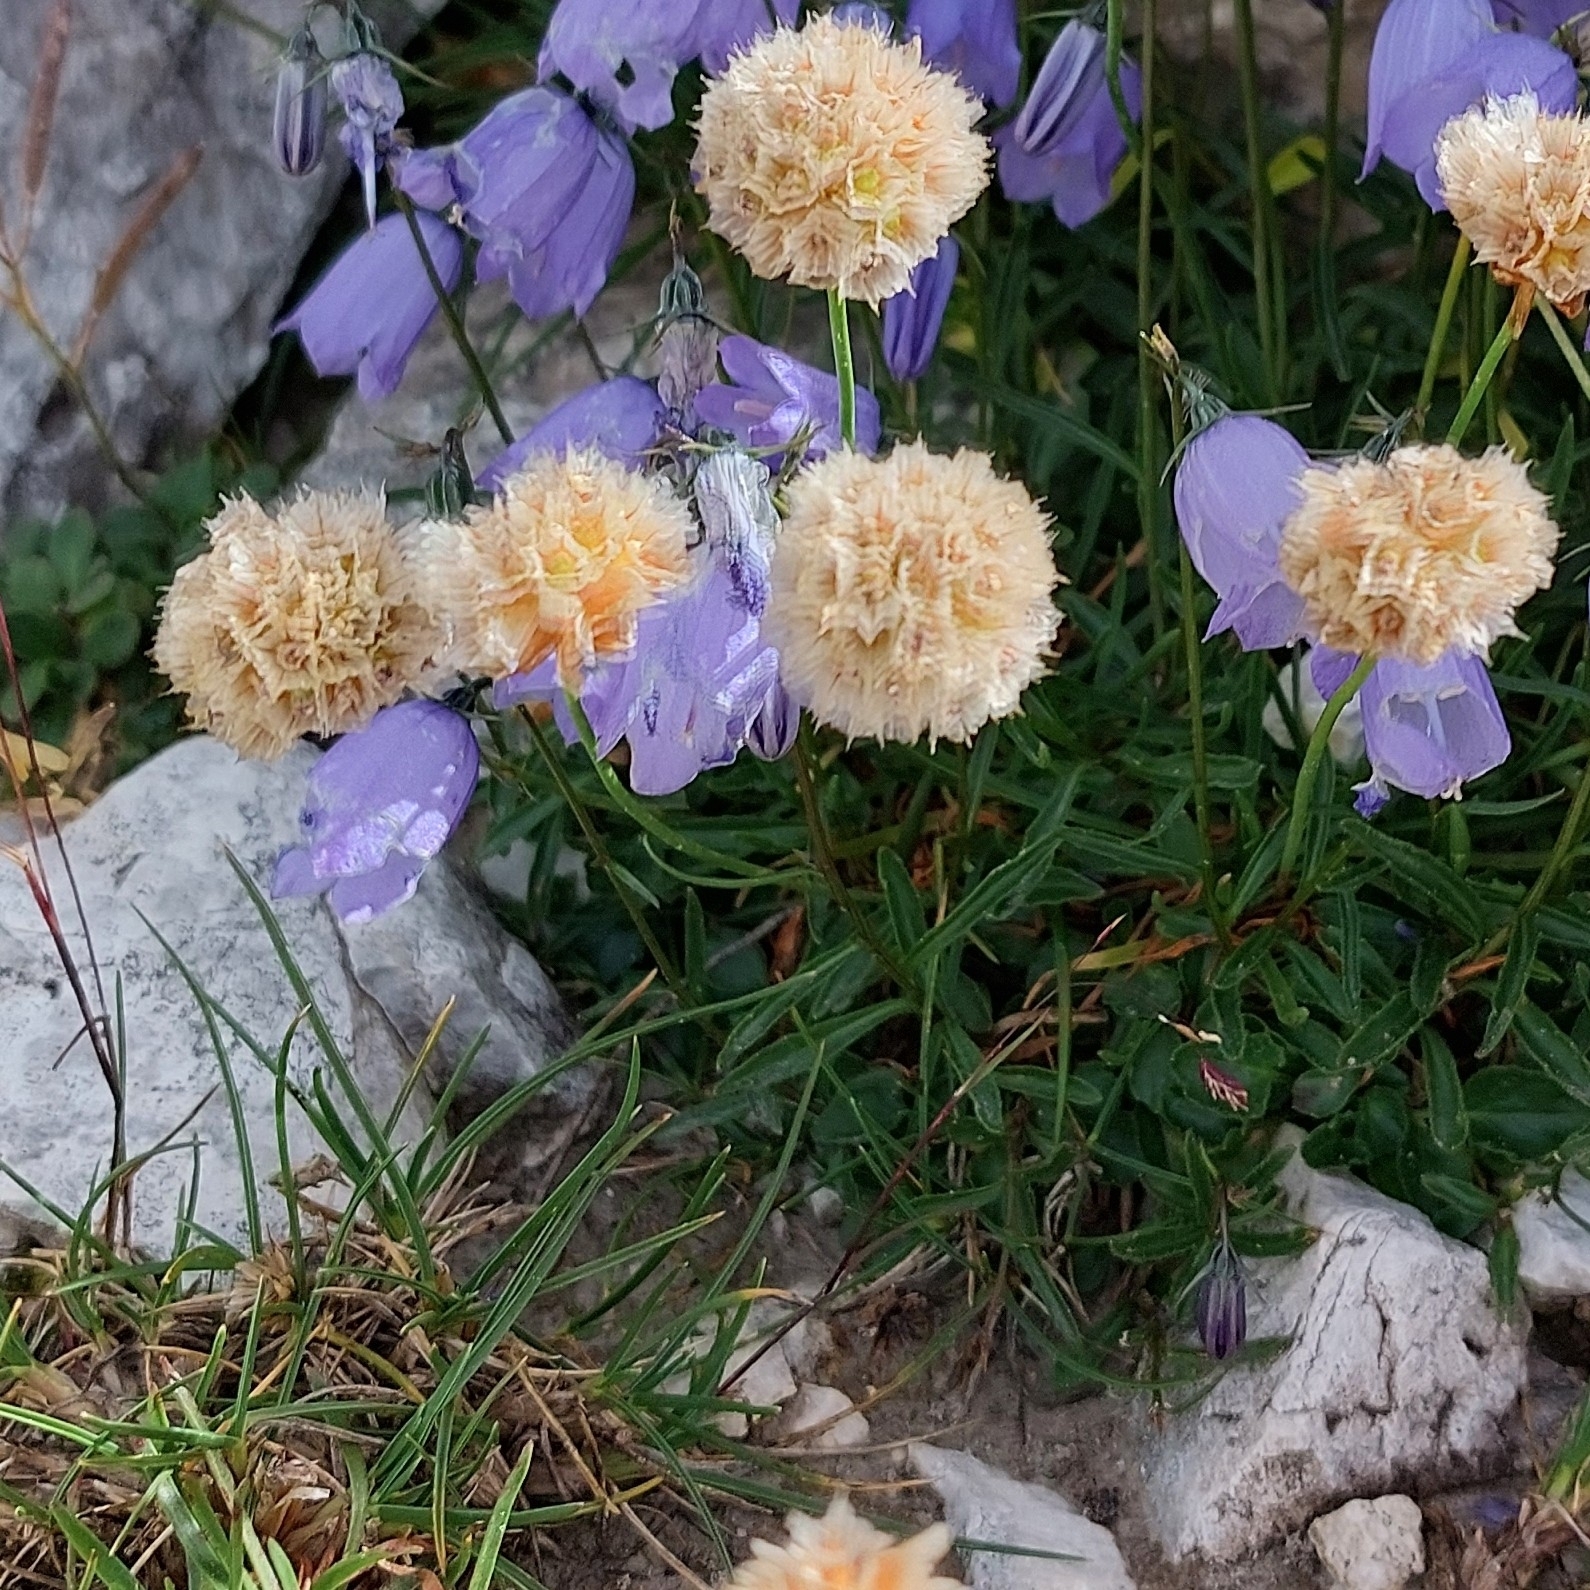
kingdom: Plantae
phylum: Tracheophyta
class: Magnoliopsida
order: Caryophyllales
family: Plumbaginaceae
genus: Armeria
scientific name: Armeria alpina
